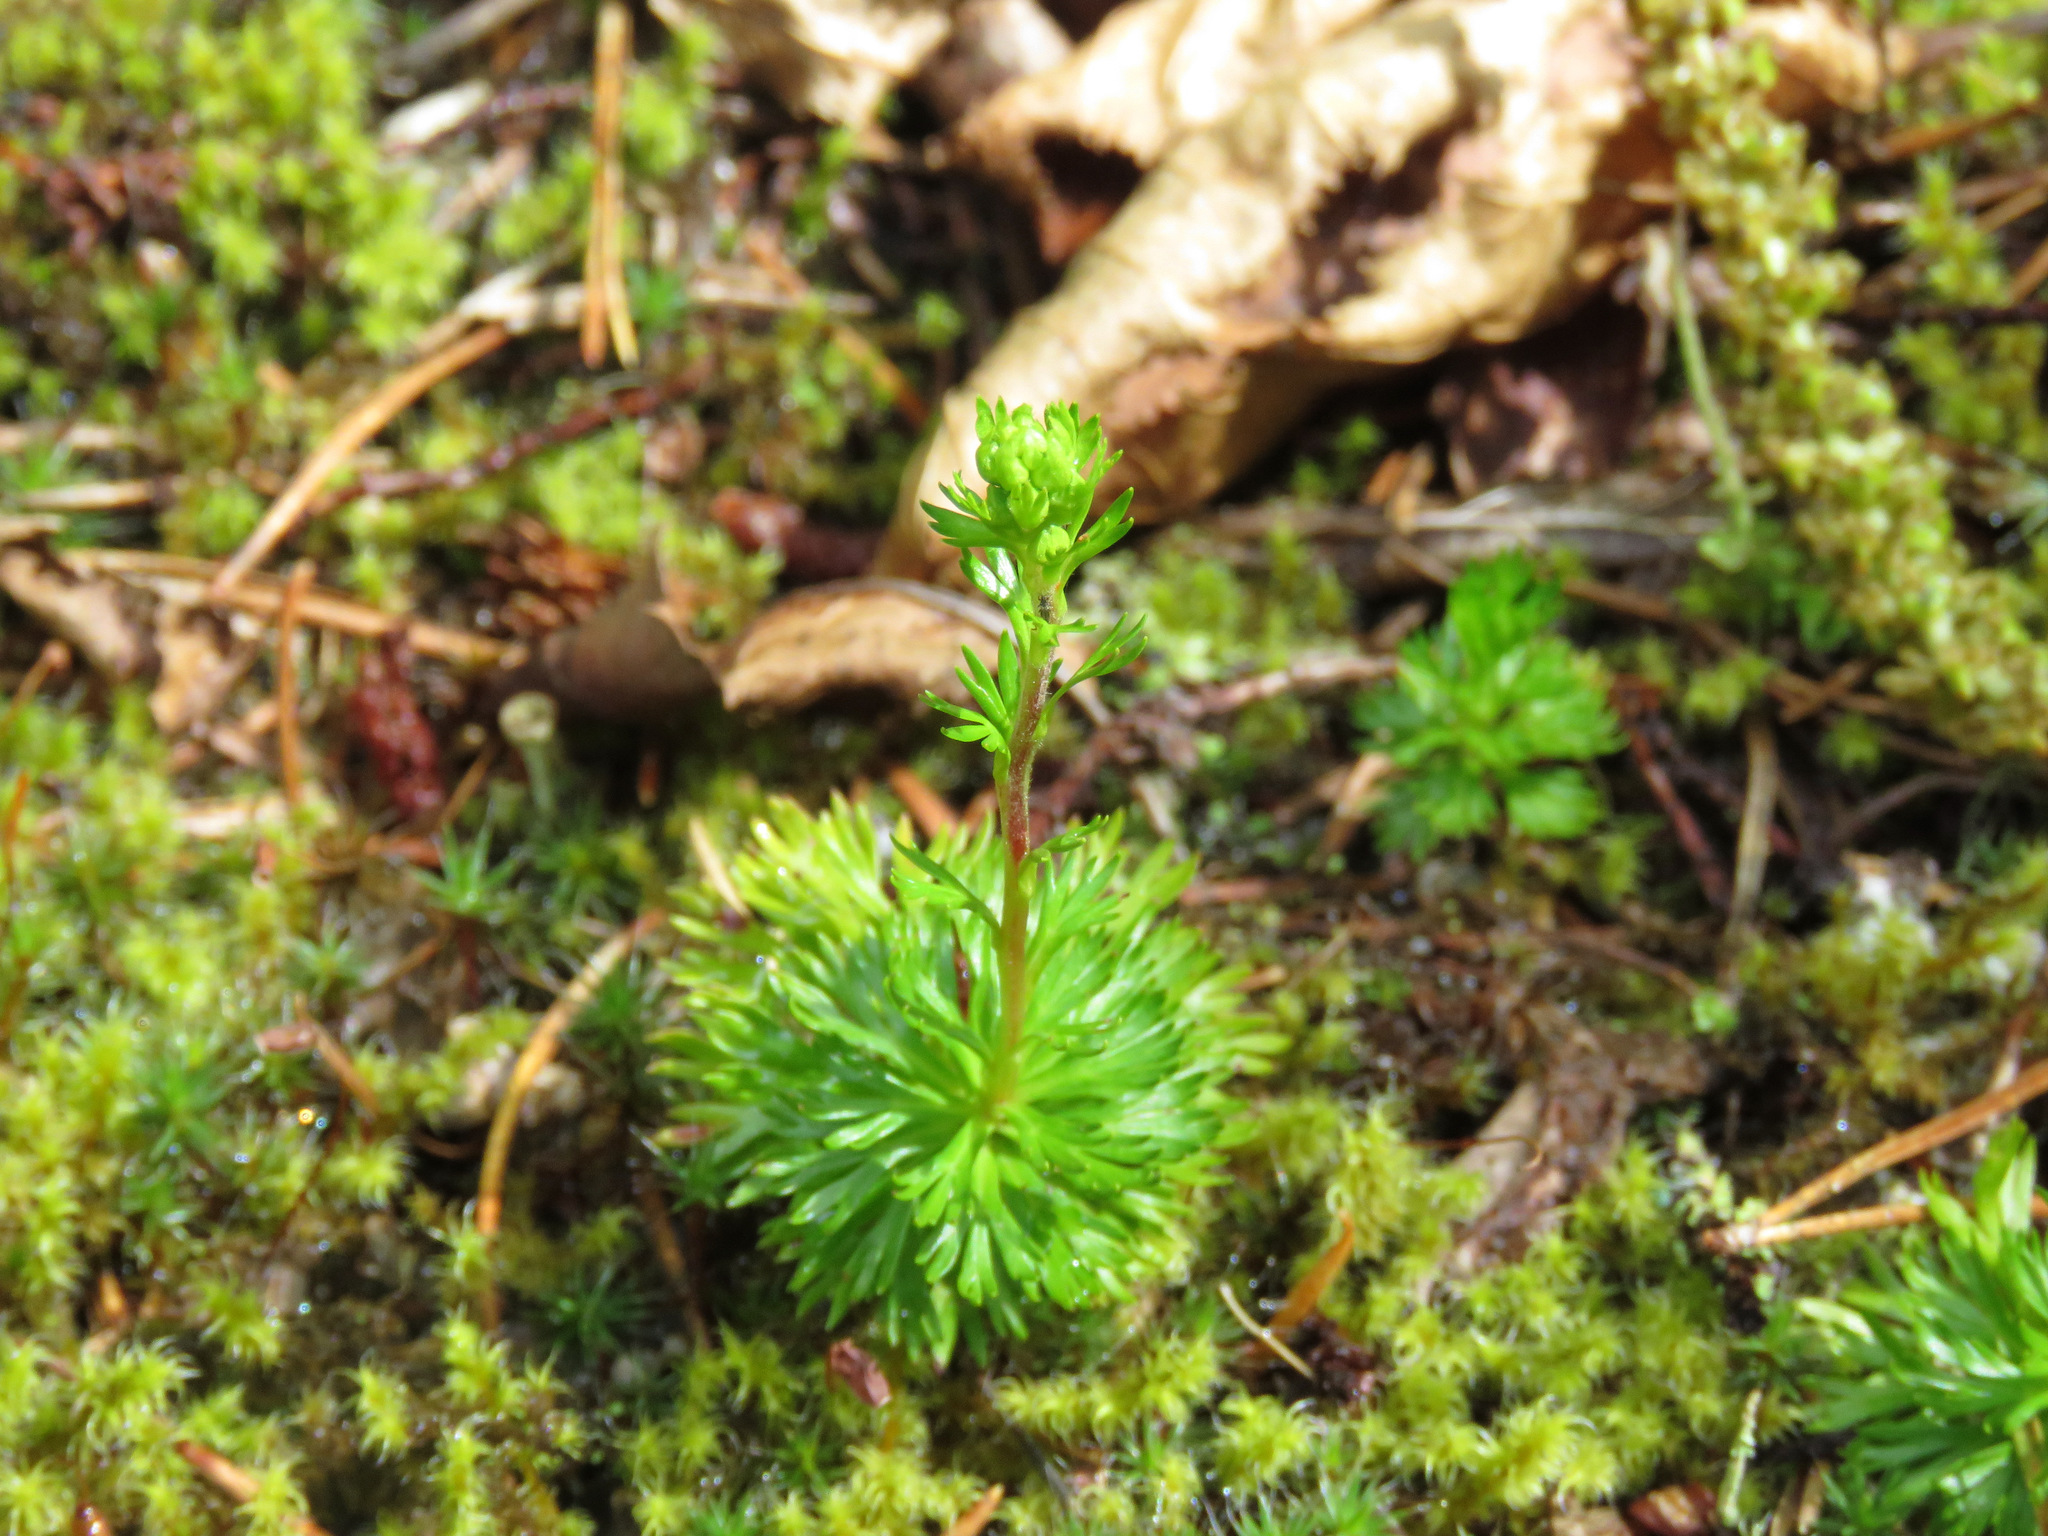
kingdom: Plantae
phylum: Tracheophyta
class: Magnoliopsida
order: Rosales
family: Rosaceae
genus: Luetkea
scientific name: Luetkea pectinata
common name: Partridgefoot
